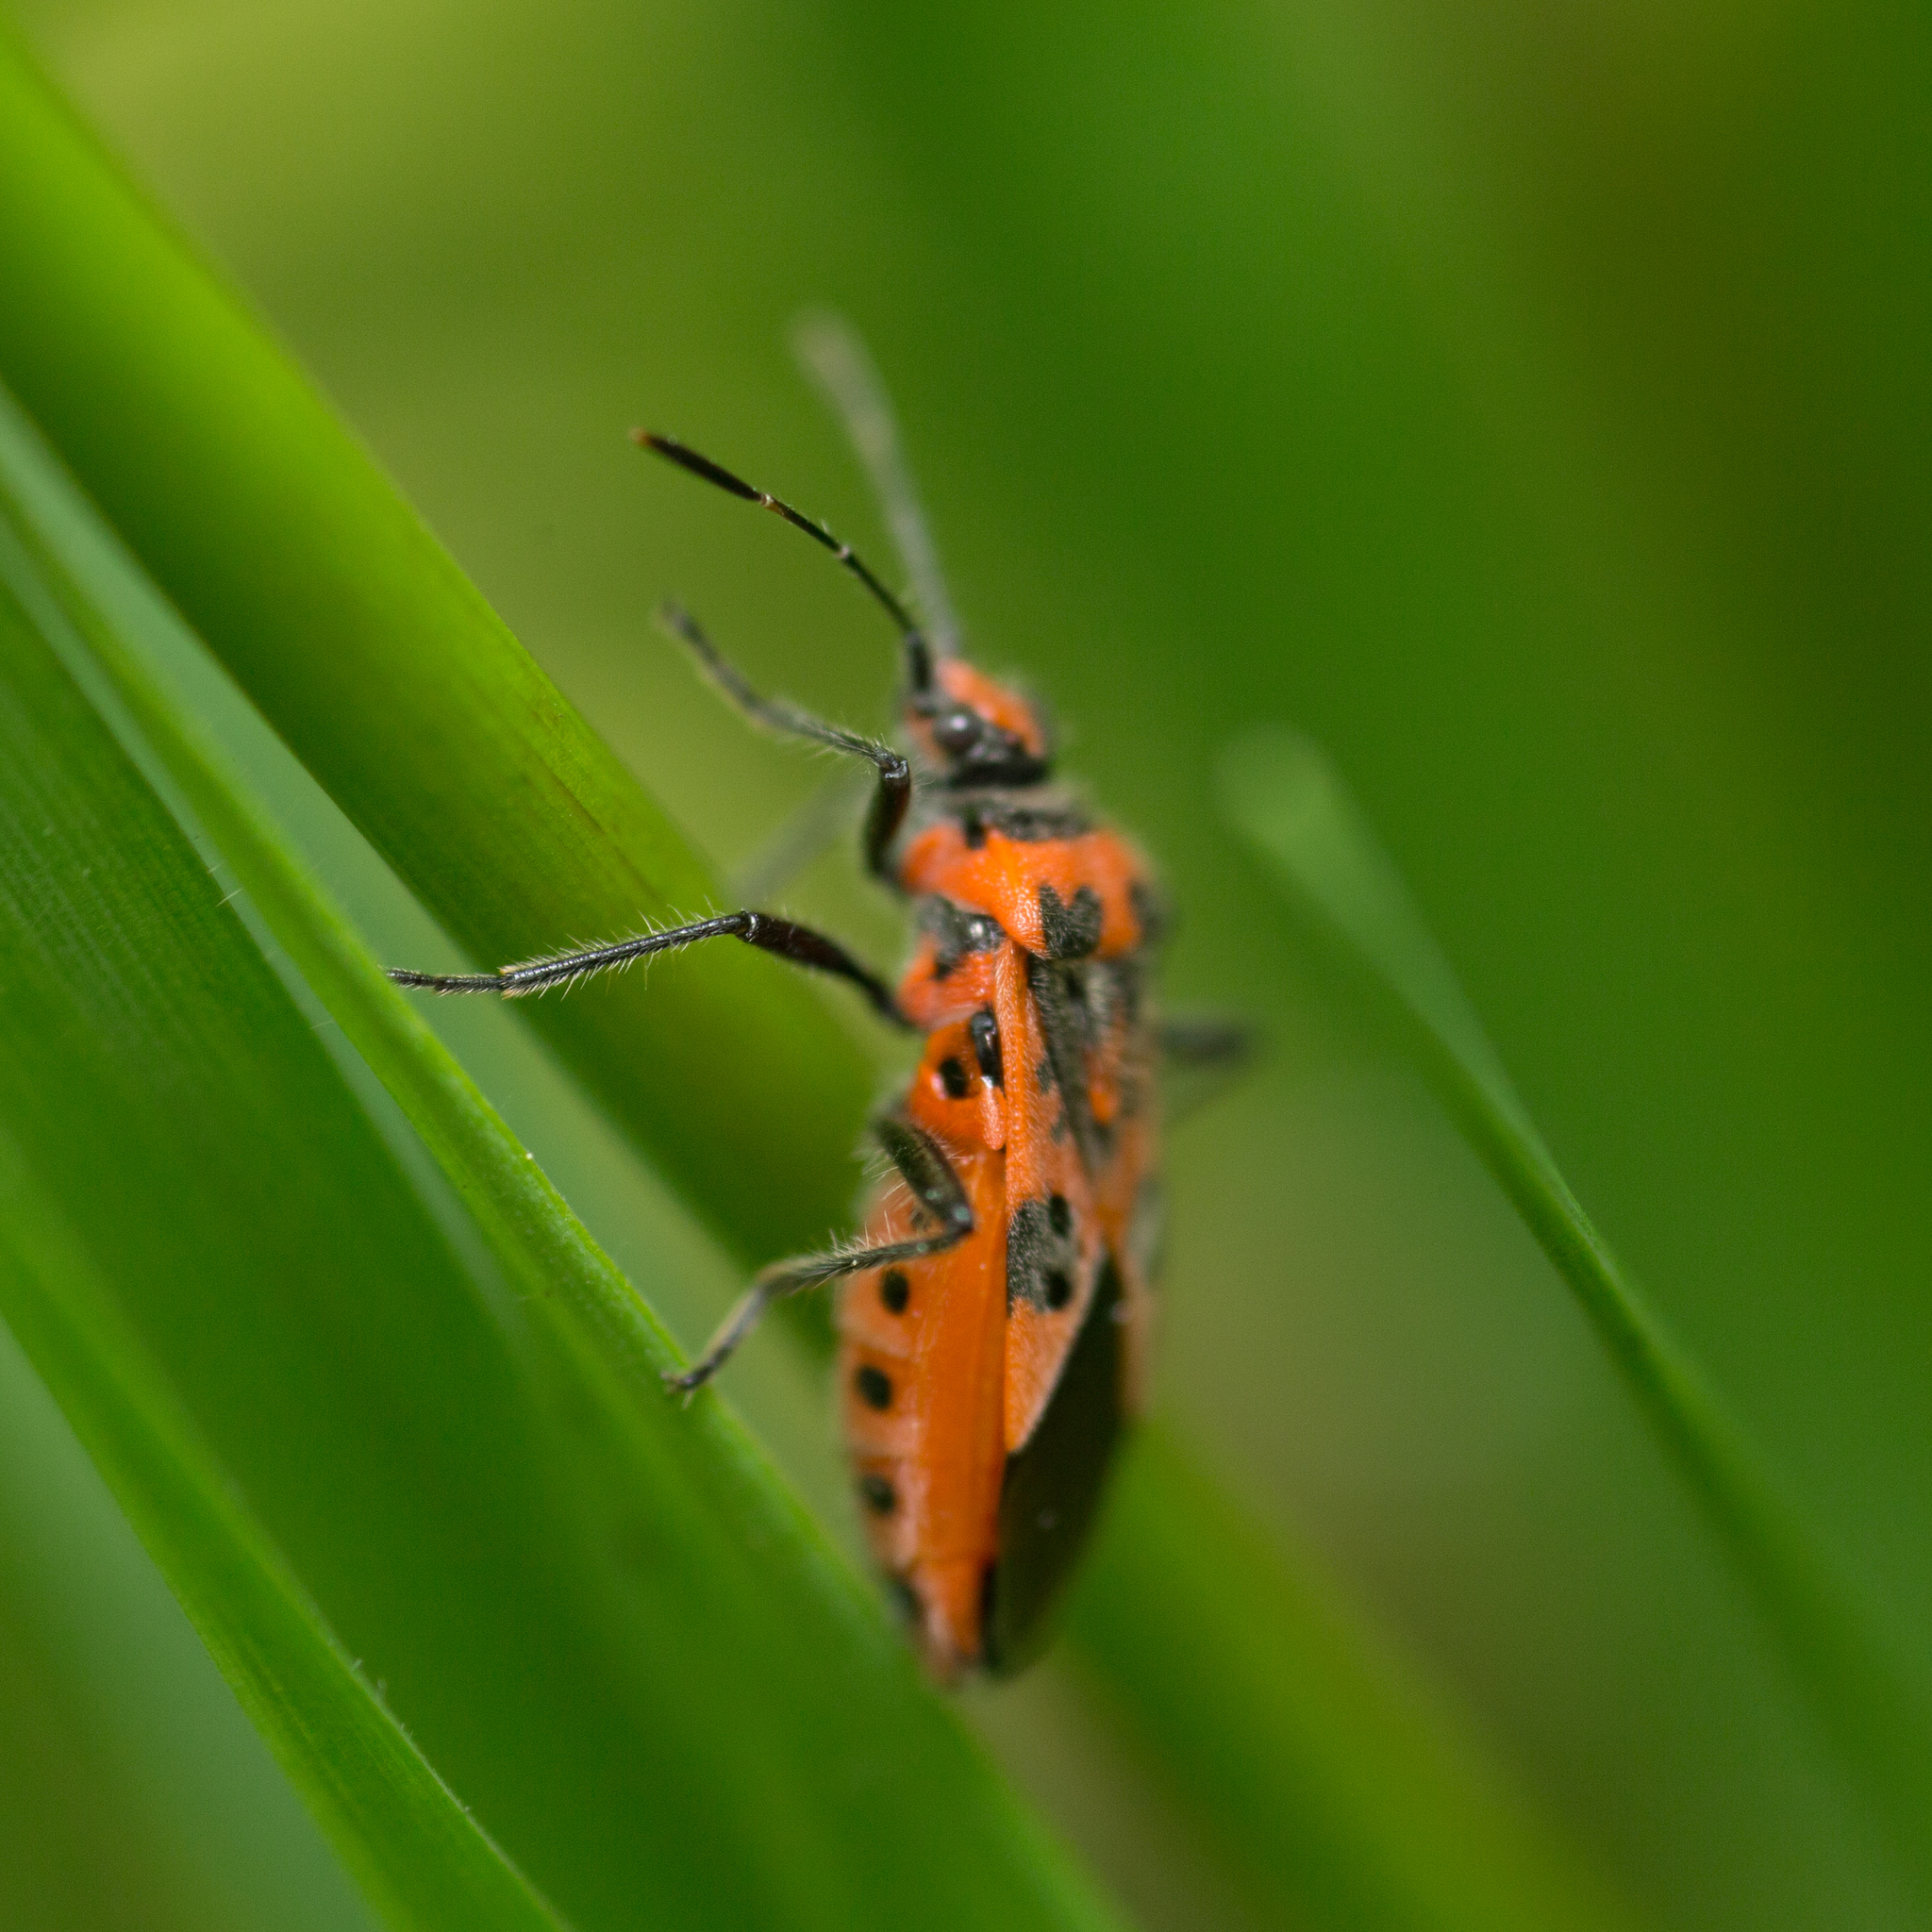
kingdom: Animalia
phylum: Arthropoda
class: Insecta
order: Hemiptera
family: Rhopalidae
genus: Corizus
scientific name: Corizus hyoscyami
